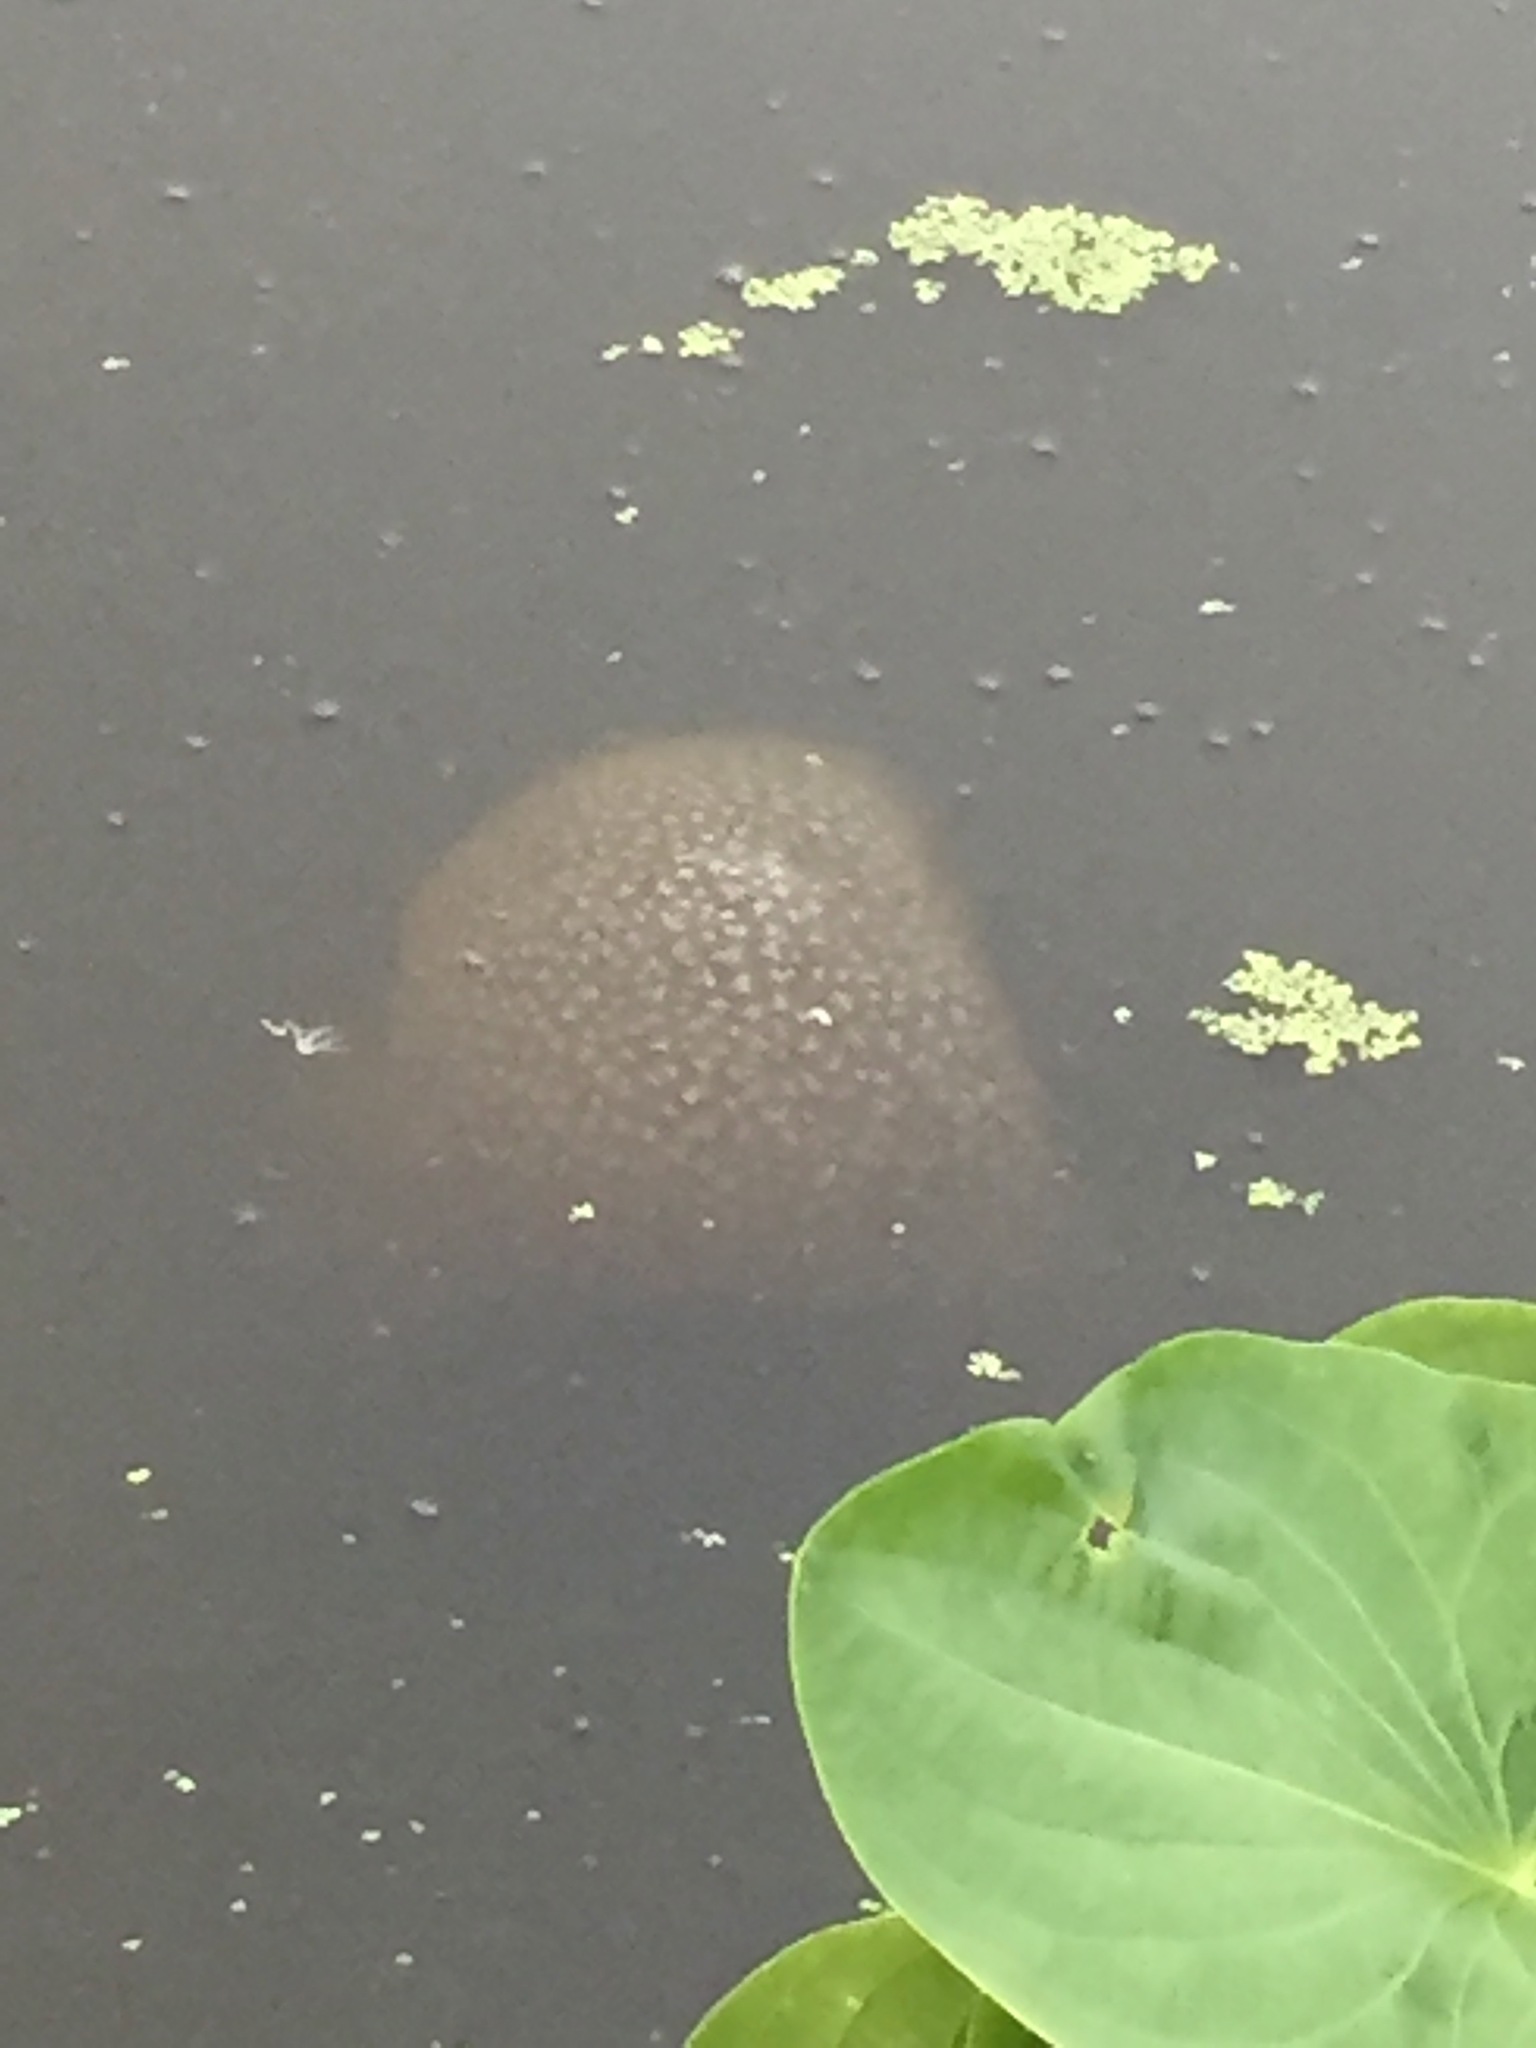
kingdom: Animalia
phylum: Bryozoa
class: Phylactolaemata
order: Plumatellida
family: Pectinatellidae
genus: Pectinatella
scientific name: Pectinatella magnifica
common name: Magnificent bryozoan
